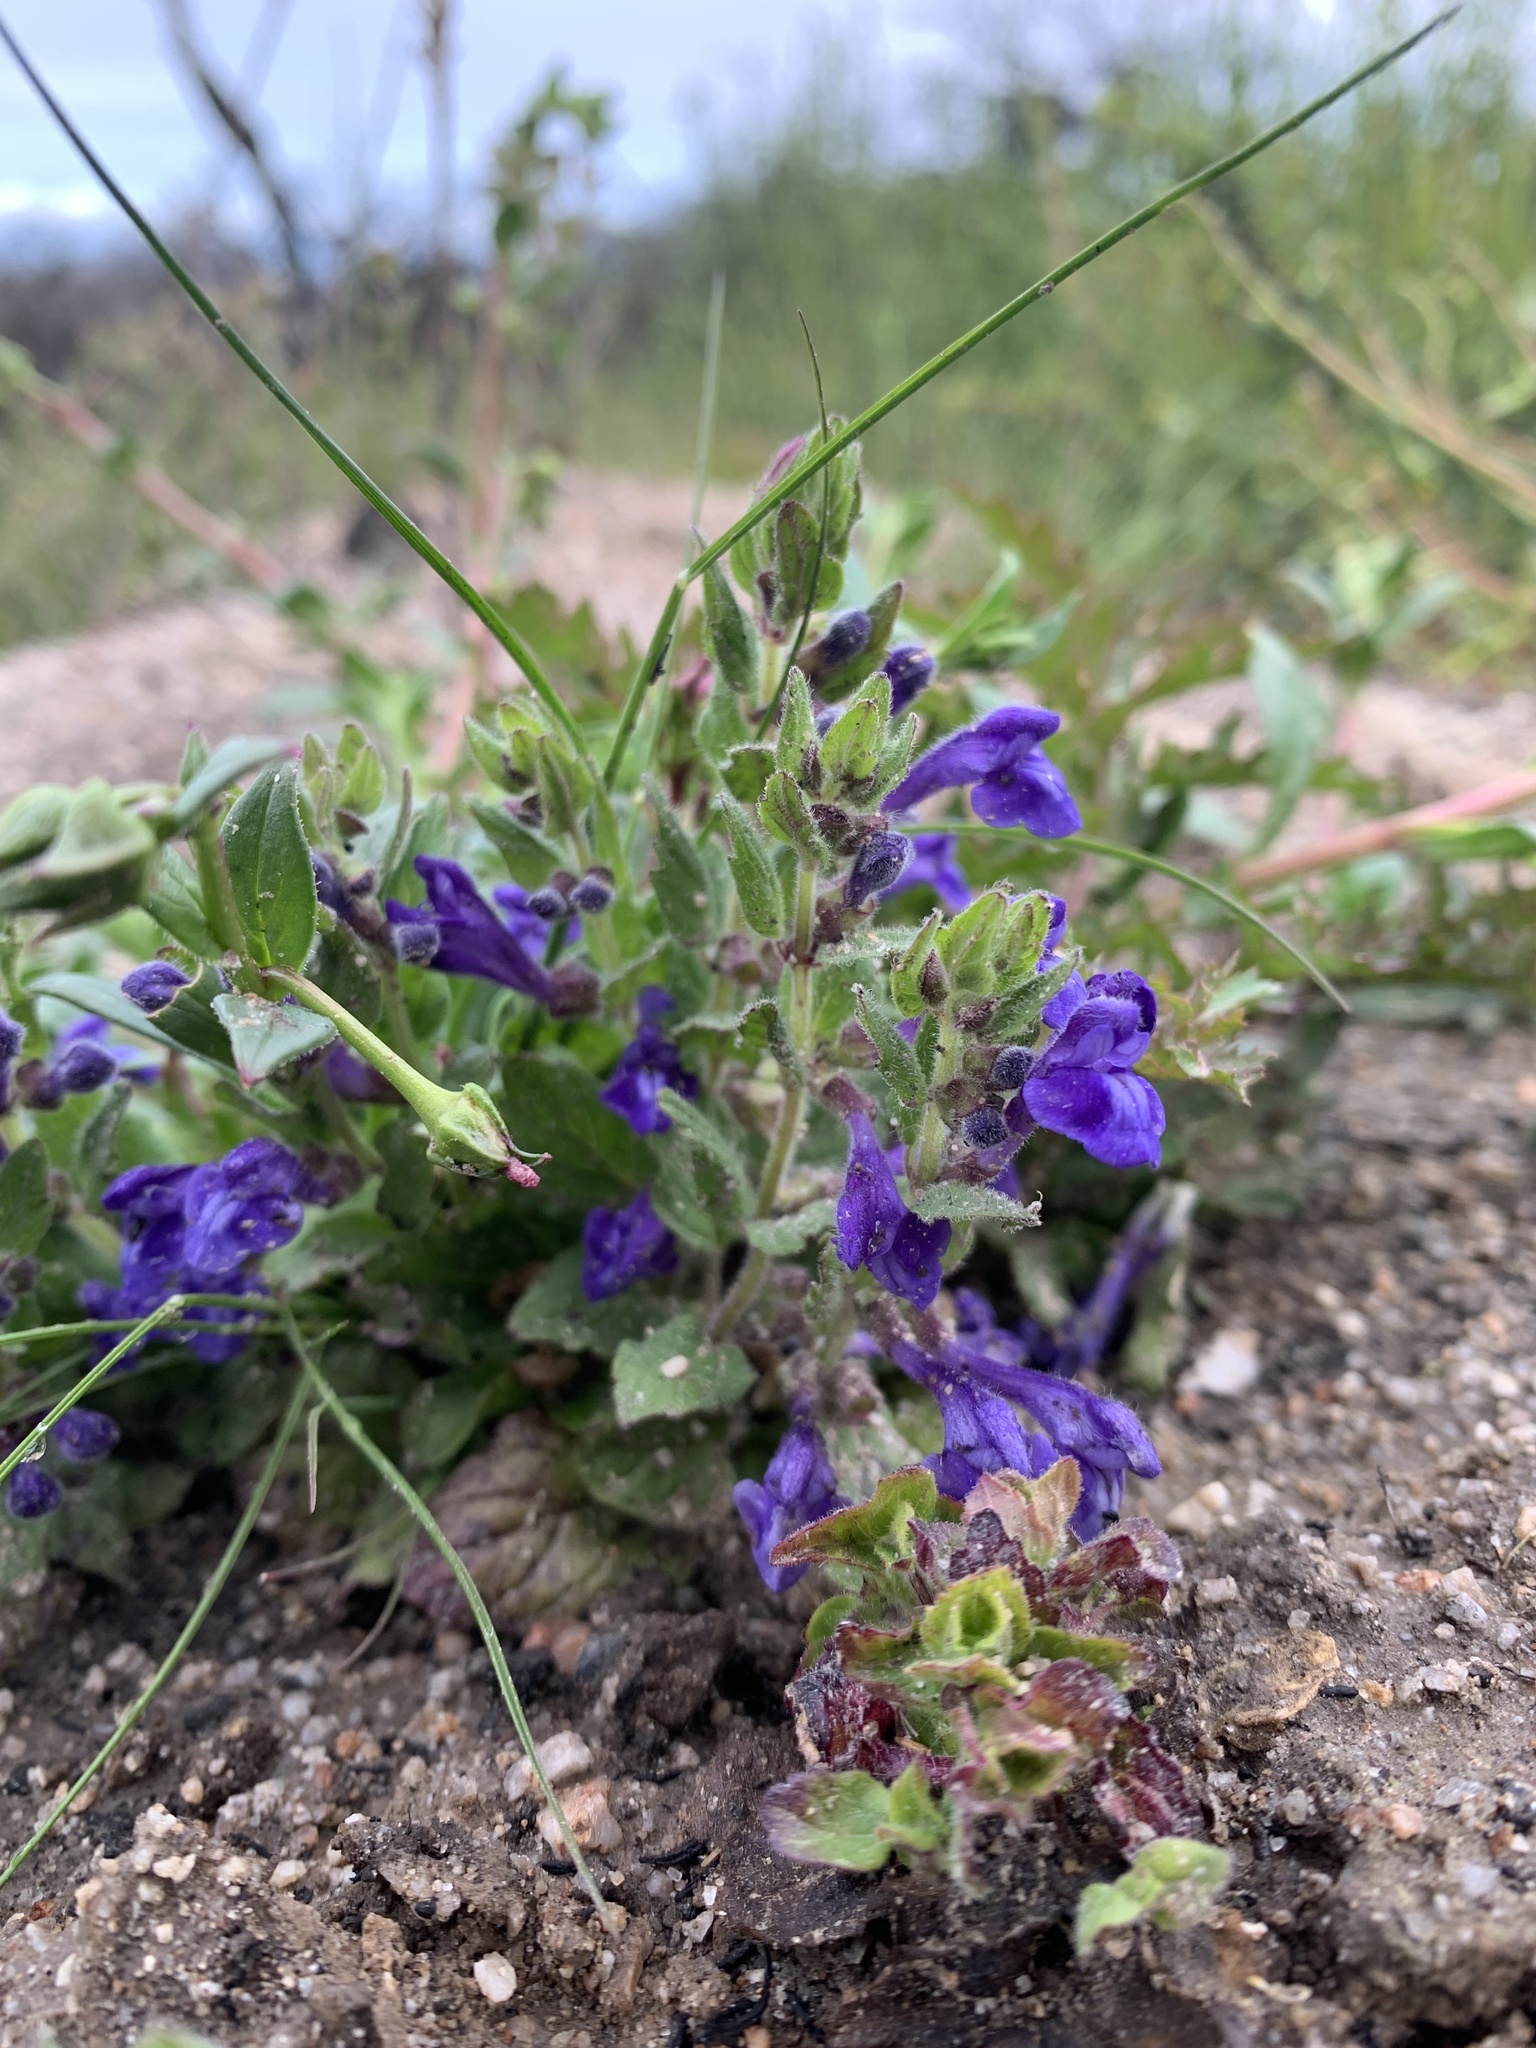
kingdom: Plantae
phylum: Tracheophyta
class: Magnoliopsida
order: Lamiales
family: Lamiaceae
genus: Scutellaria
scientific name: Scutellaria tuberosa
